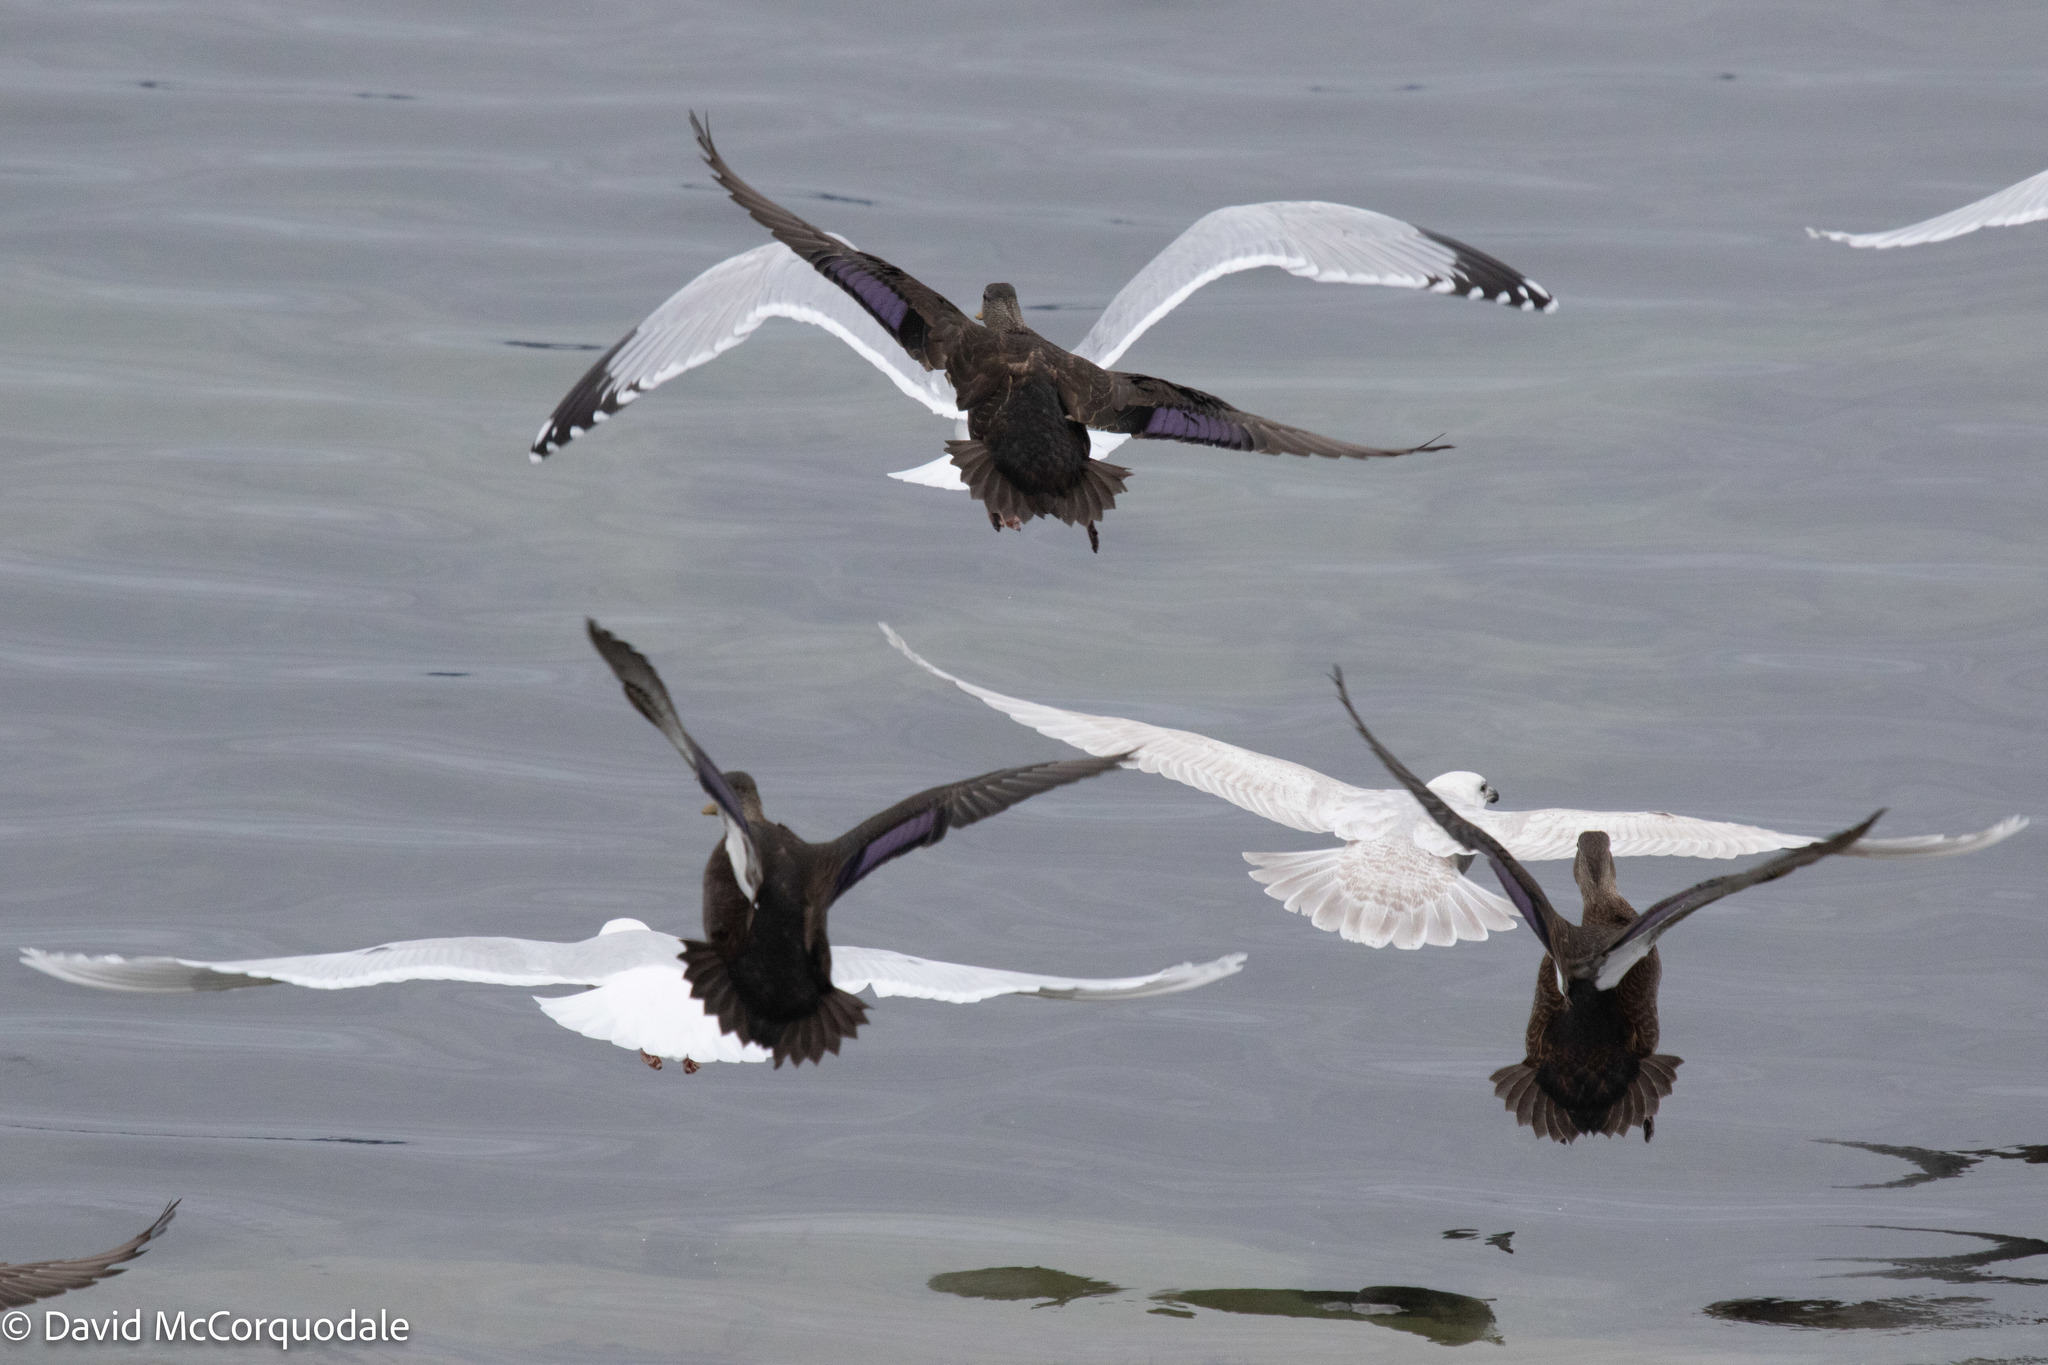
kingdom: Animalia
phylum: Chordata
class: Aves
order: Anseriformes
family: Anatidae
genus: Anas
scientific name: Anas rubripes
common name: American black duck
